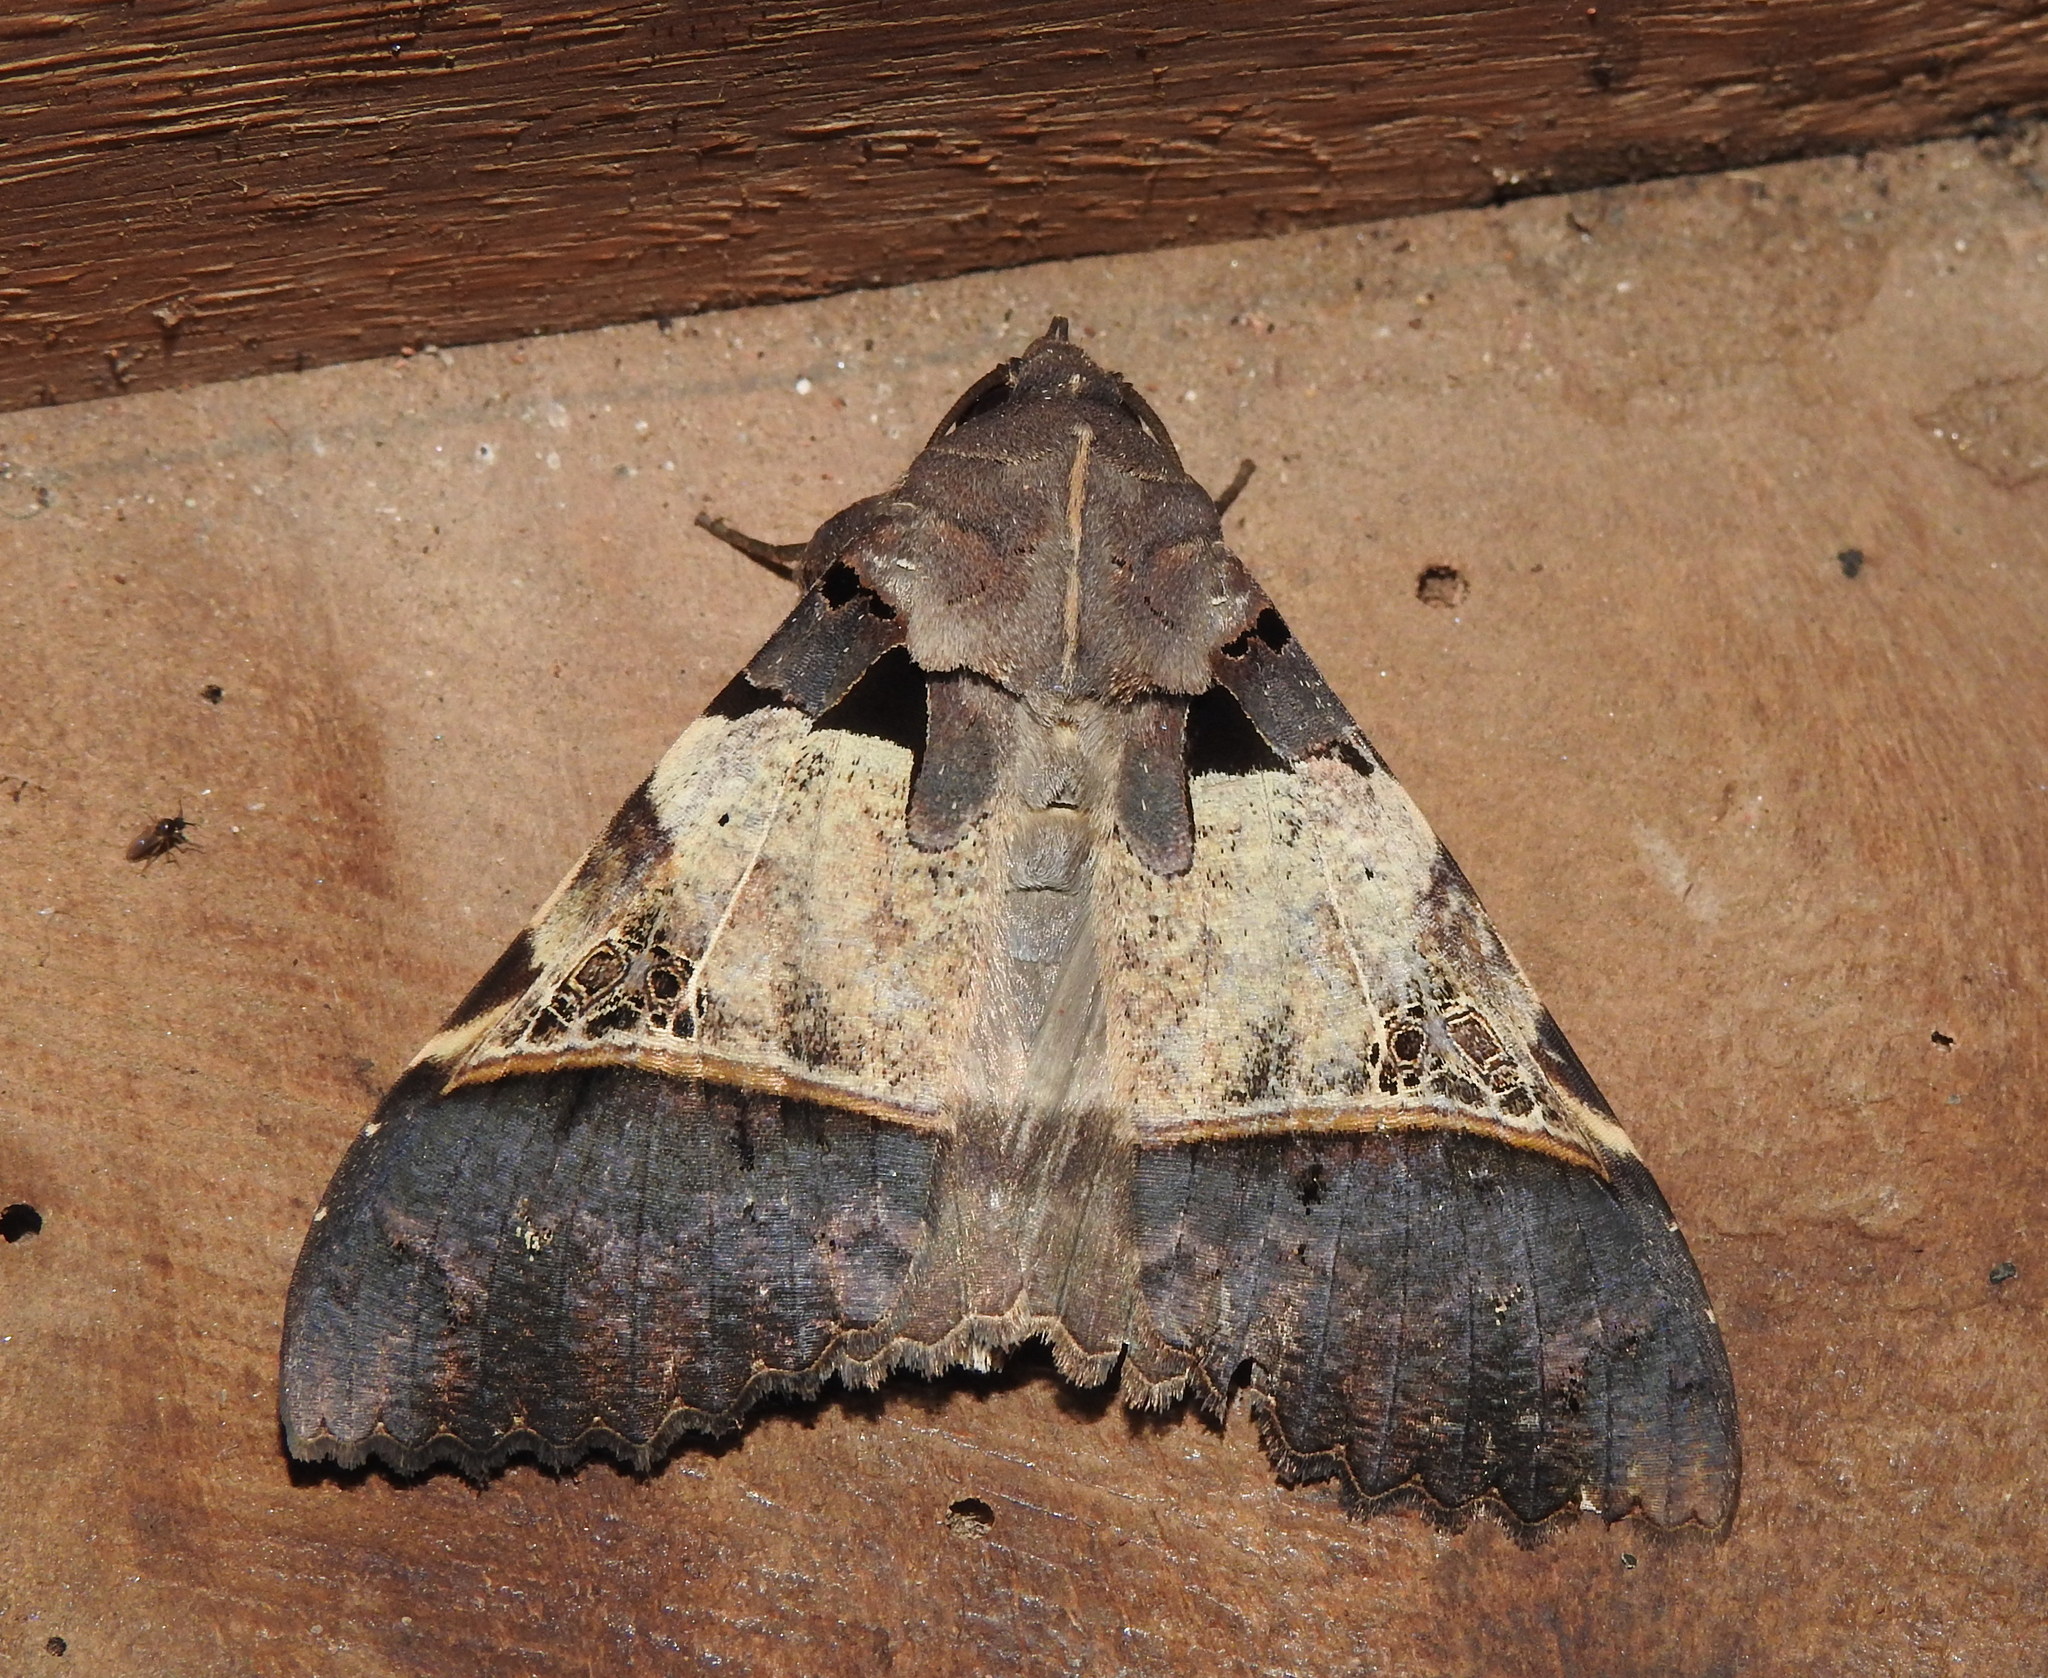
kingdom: Animalia
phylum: Arthropoda
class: Insecta
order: Lepidoptera
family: Erebidae
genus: Serrodes
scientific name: Serrodes campana
